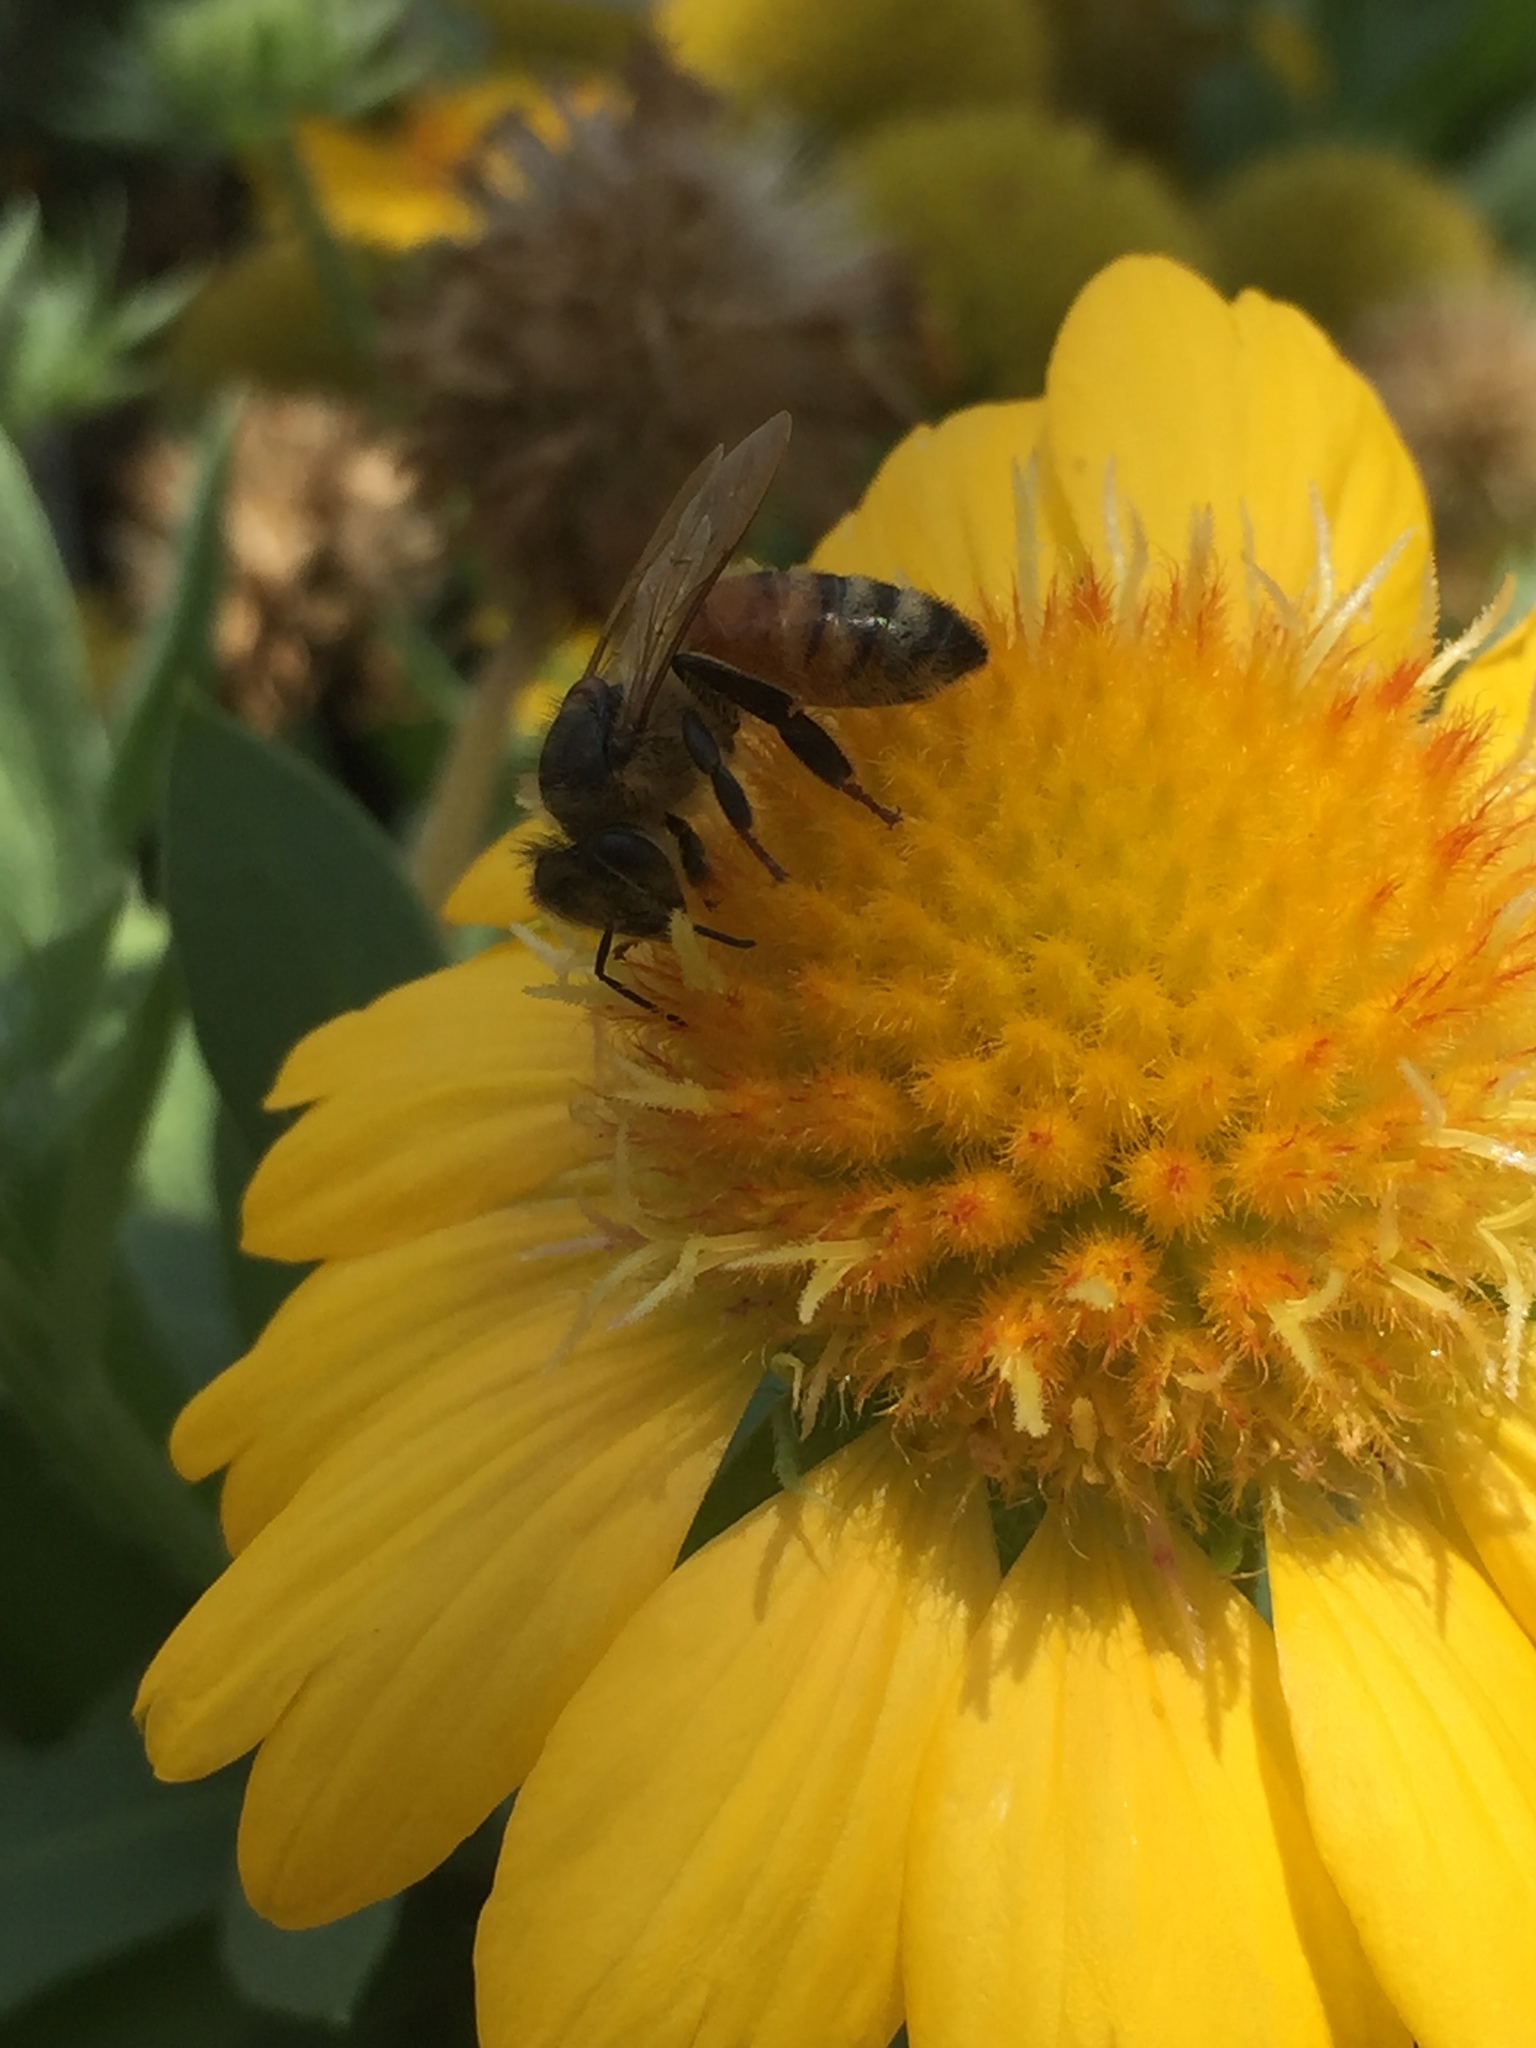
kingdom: Animalia
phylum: Arthropoda
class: Insecta
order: Hymenoptera
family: Apidae
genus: Apis
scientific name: Apis mellifera
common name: Honey bee
